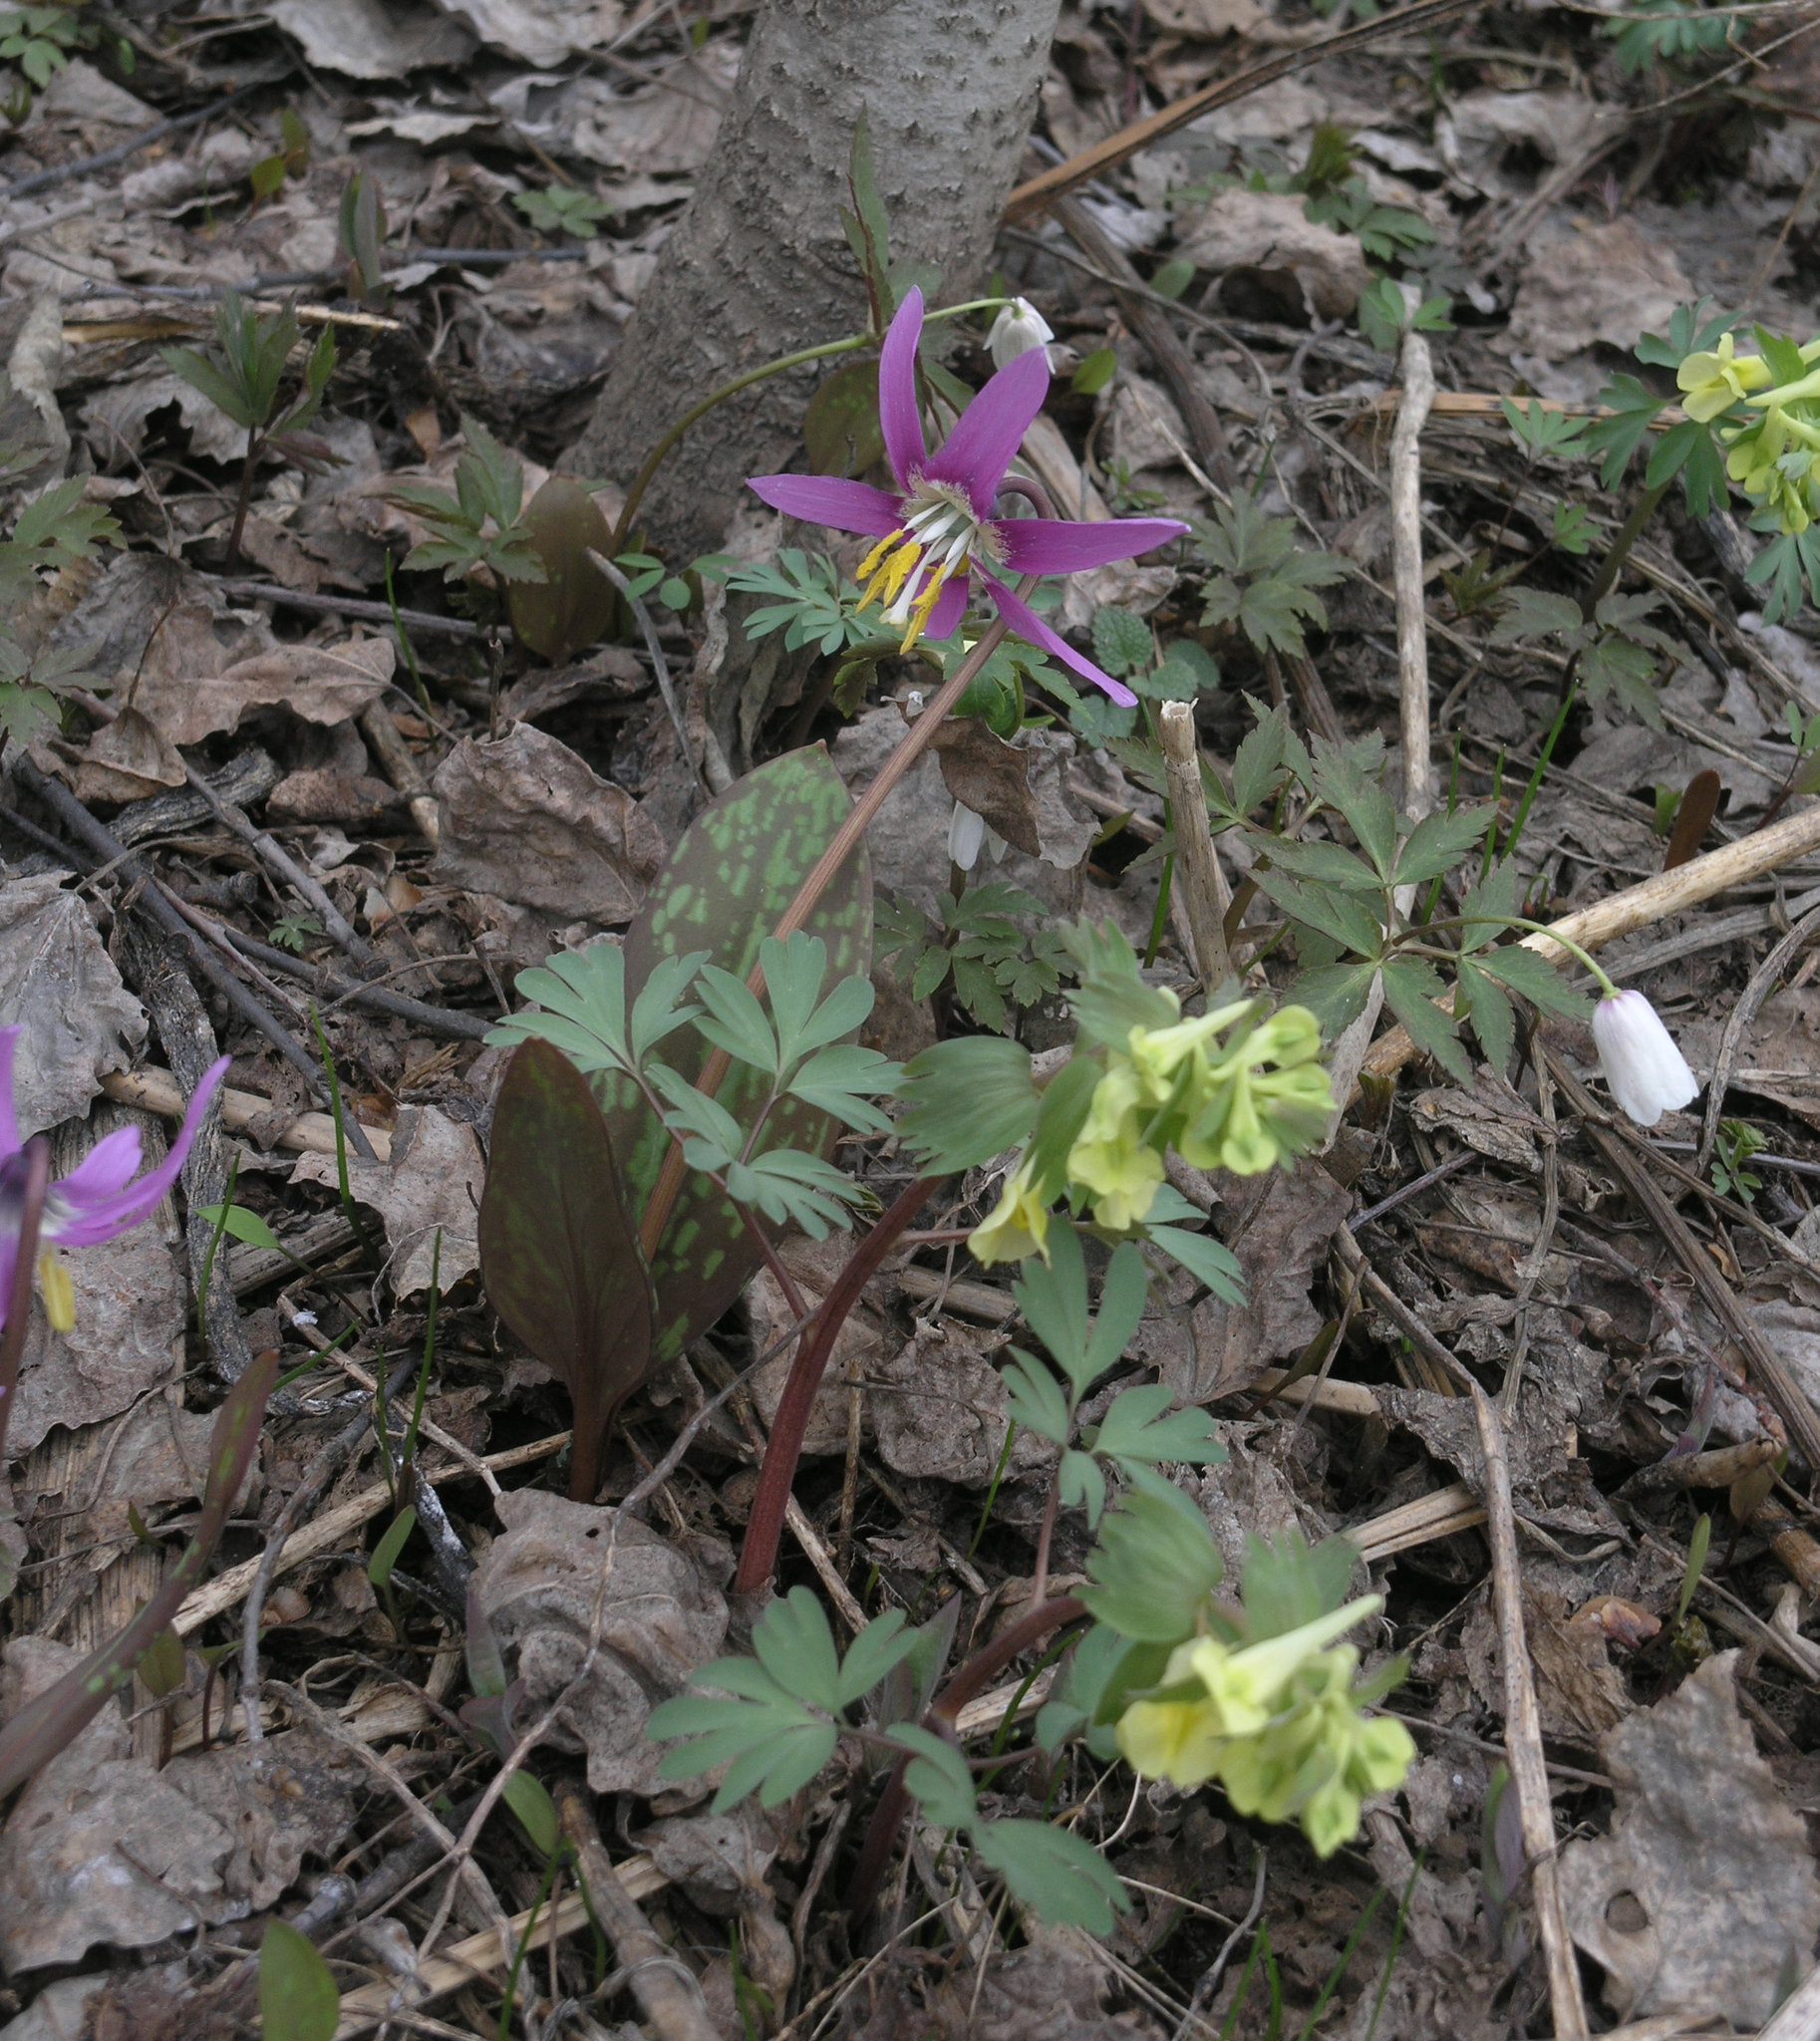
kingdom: Plantae
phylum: Tracheophyta
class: Magnoliopsida
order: Ranunculales
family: Ranunculaceae
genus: Anemone
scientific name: Anemone altaica
